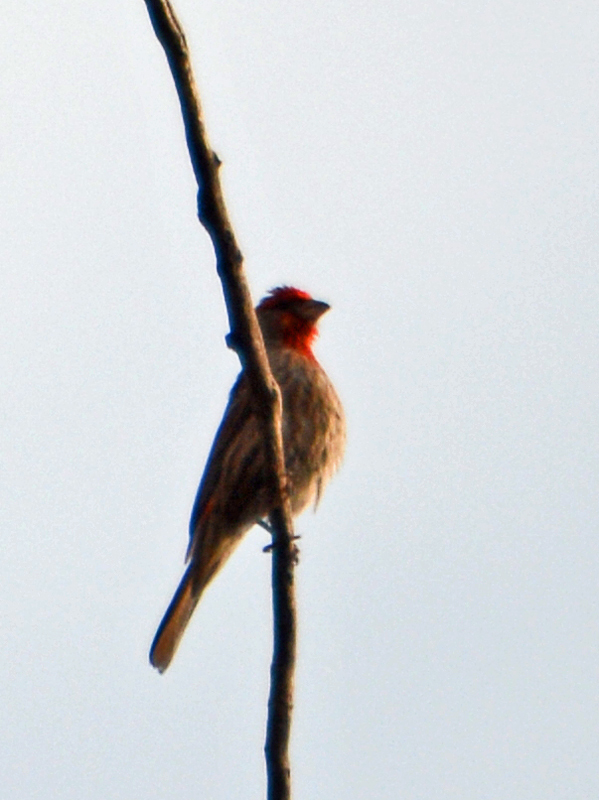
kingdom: Animalia
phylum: Chordata
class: Aves
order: Passeriformes
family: Fringillidae
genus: Haemorhous
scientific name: Haemorhous mexicanus
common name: House finch
